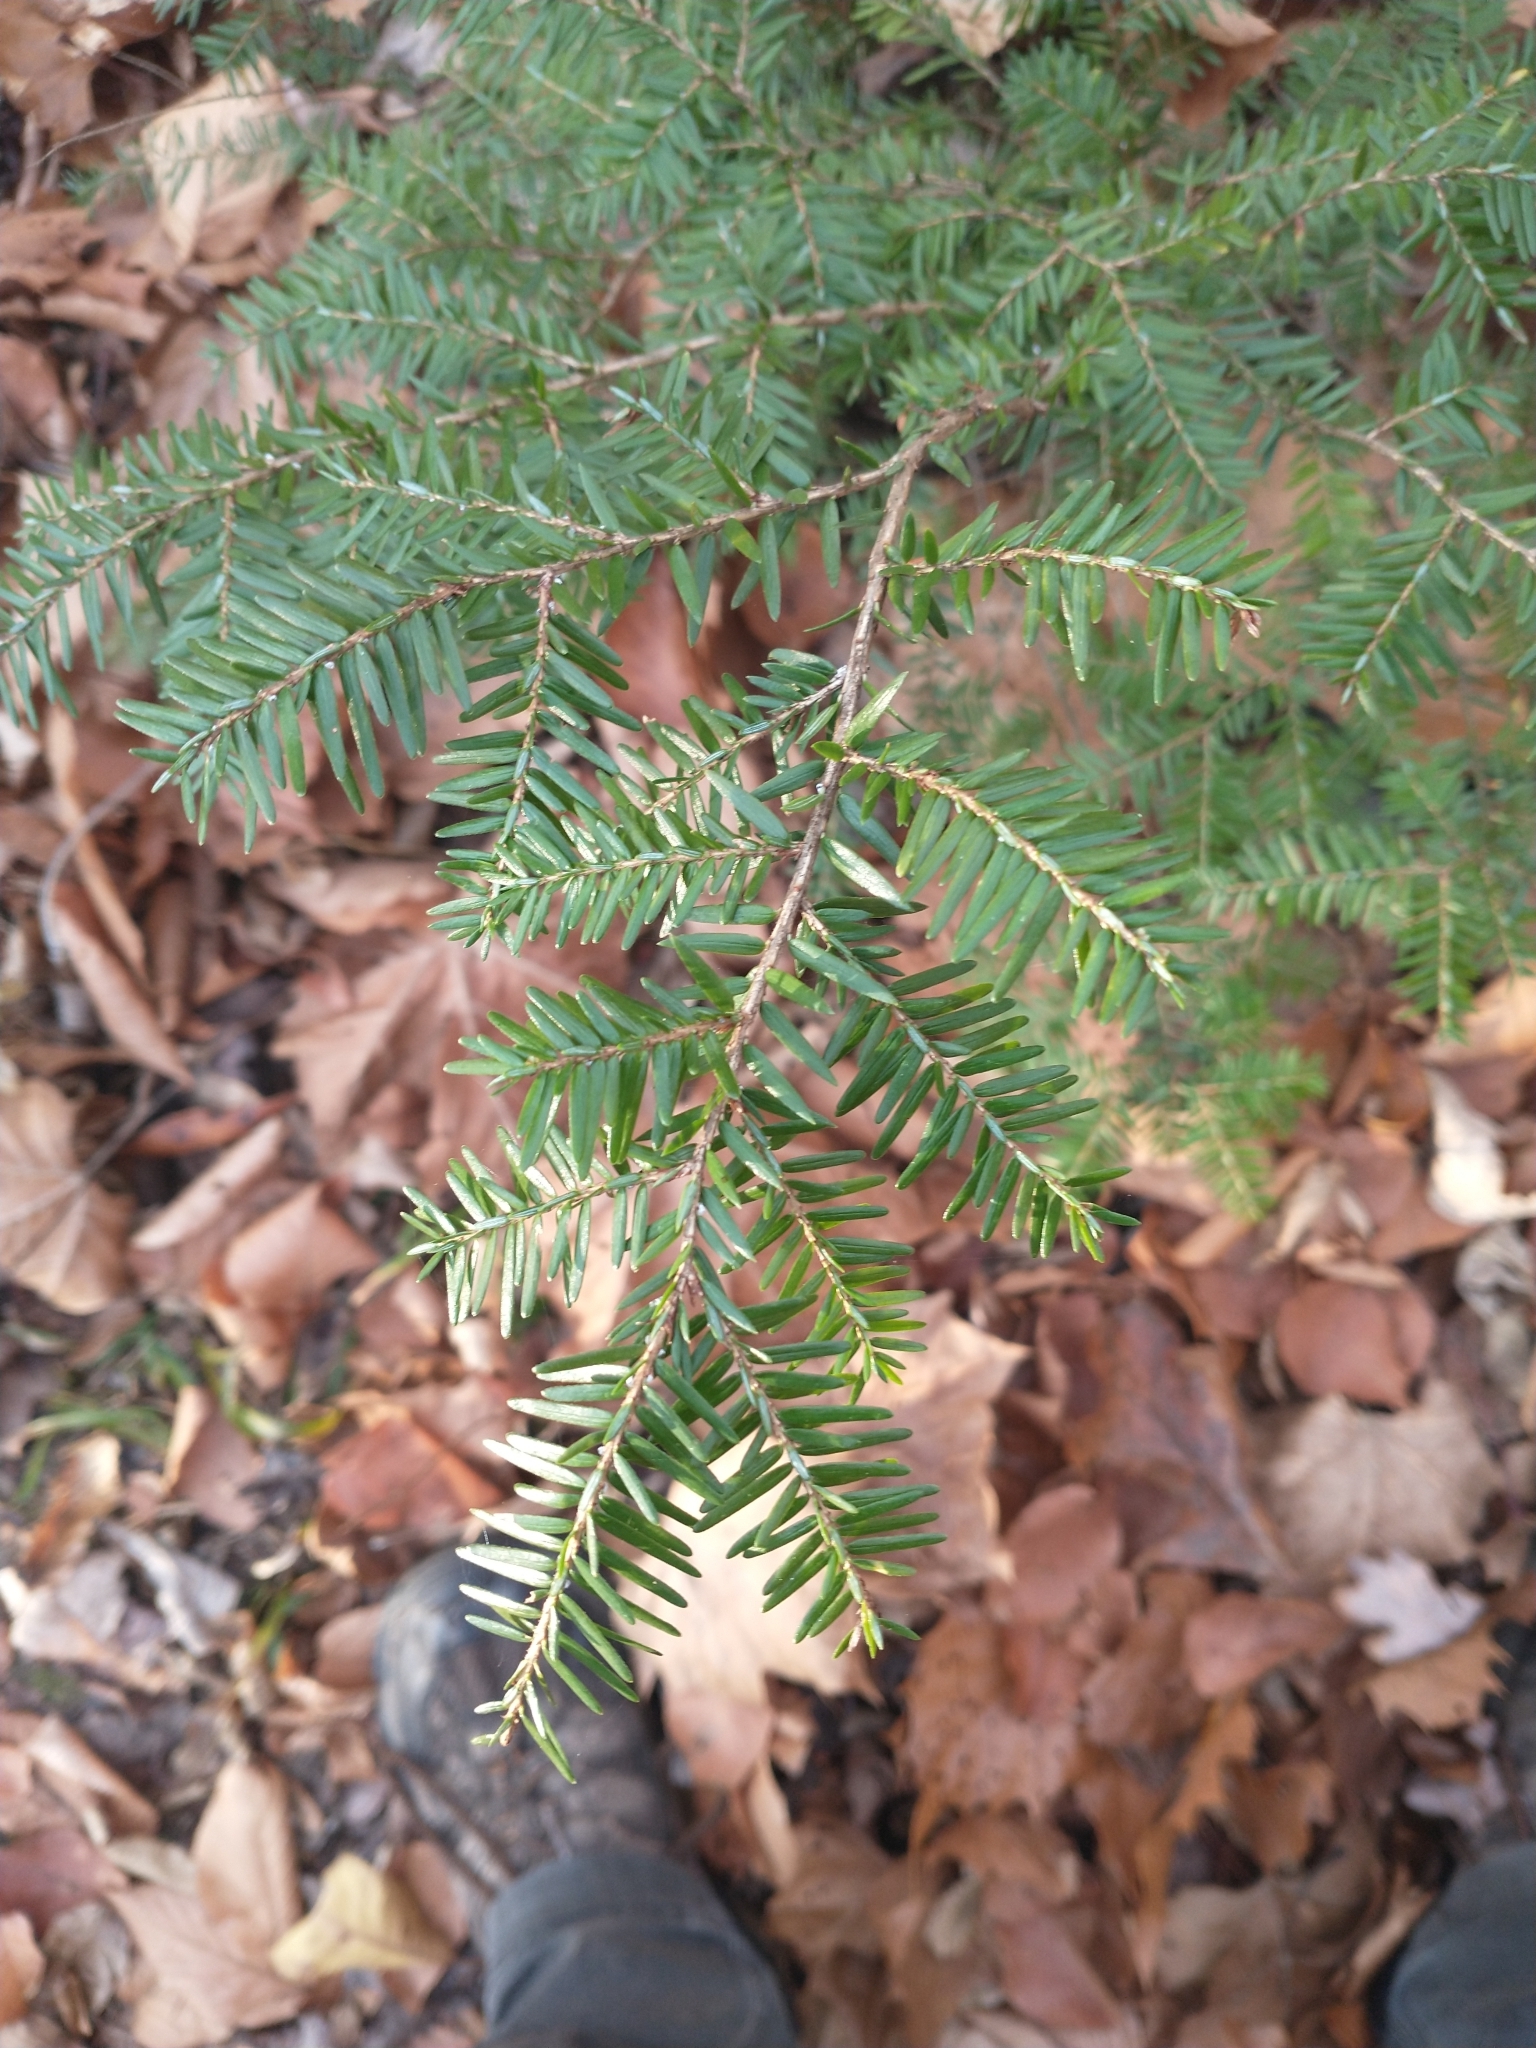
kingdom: Plantae
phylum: Tracheophyta
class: Pinopsida
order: Pinales
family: Pinaceae
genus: Tsuga
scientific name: Tsuga canadensis
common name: Eastern hemlock
